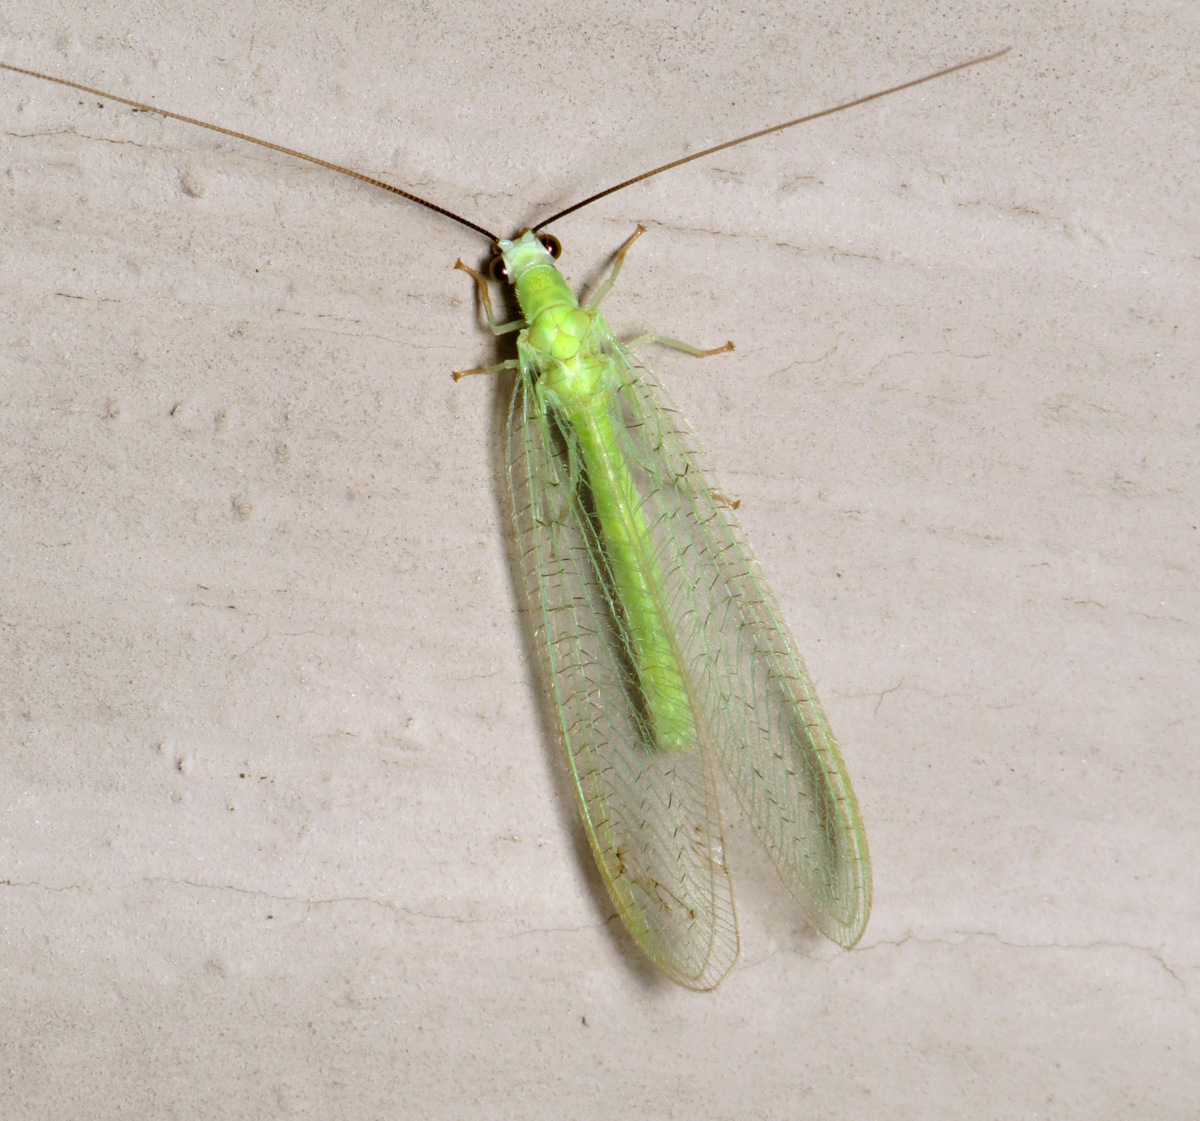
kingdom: Animalia
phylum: Arthropoda
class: Insecta
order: Neuroptera
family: Chrysopidae
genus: Chrysopa
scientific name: Chrysopa nigricornis
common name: Black-horned green lacewing
